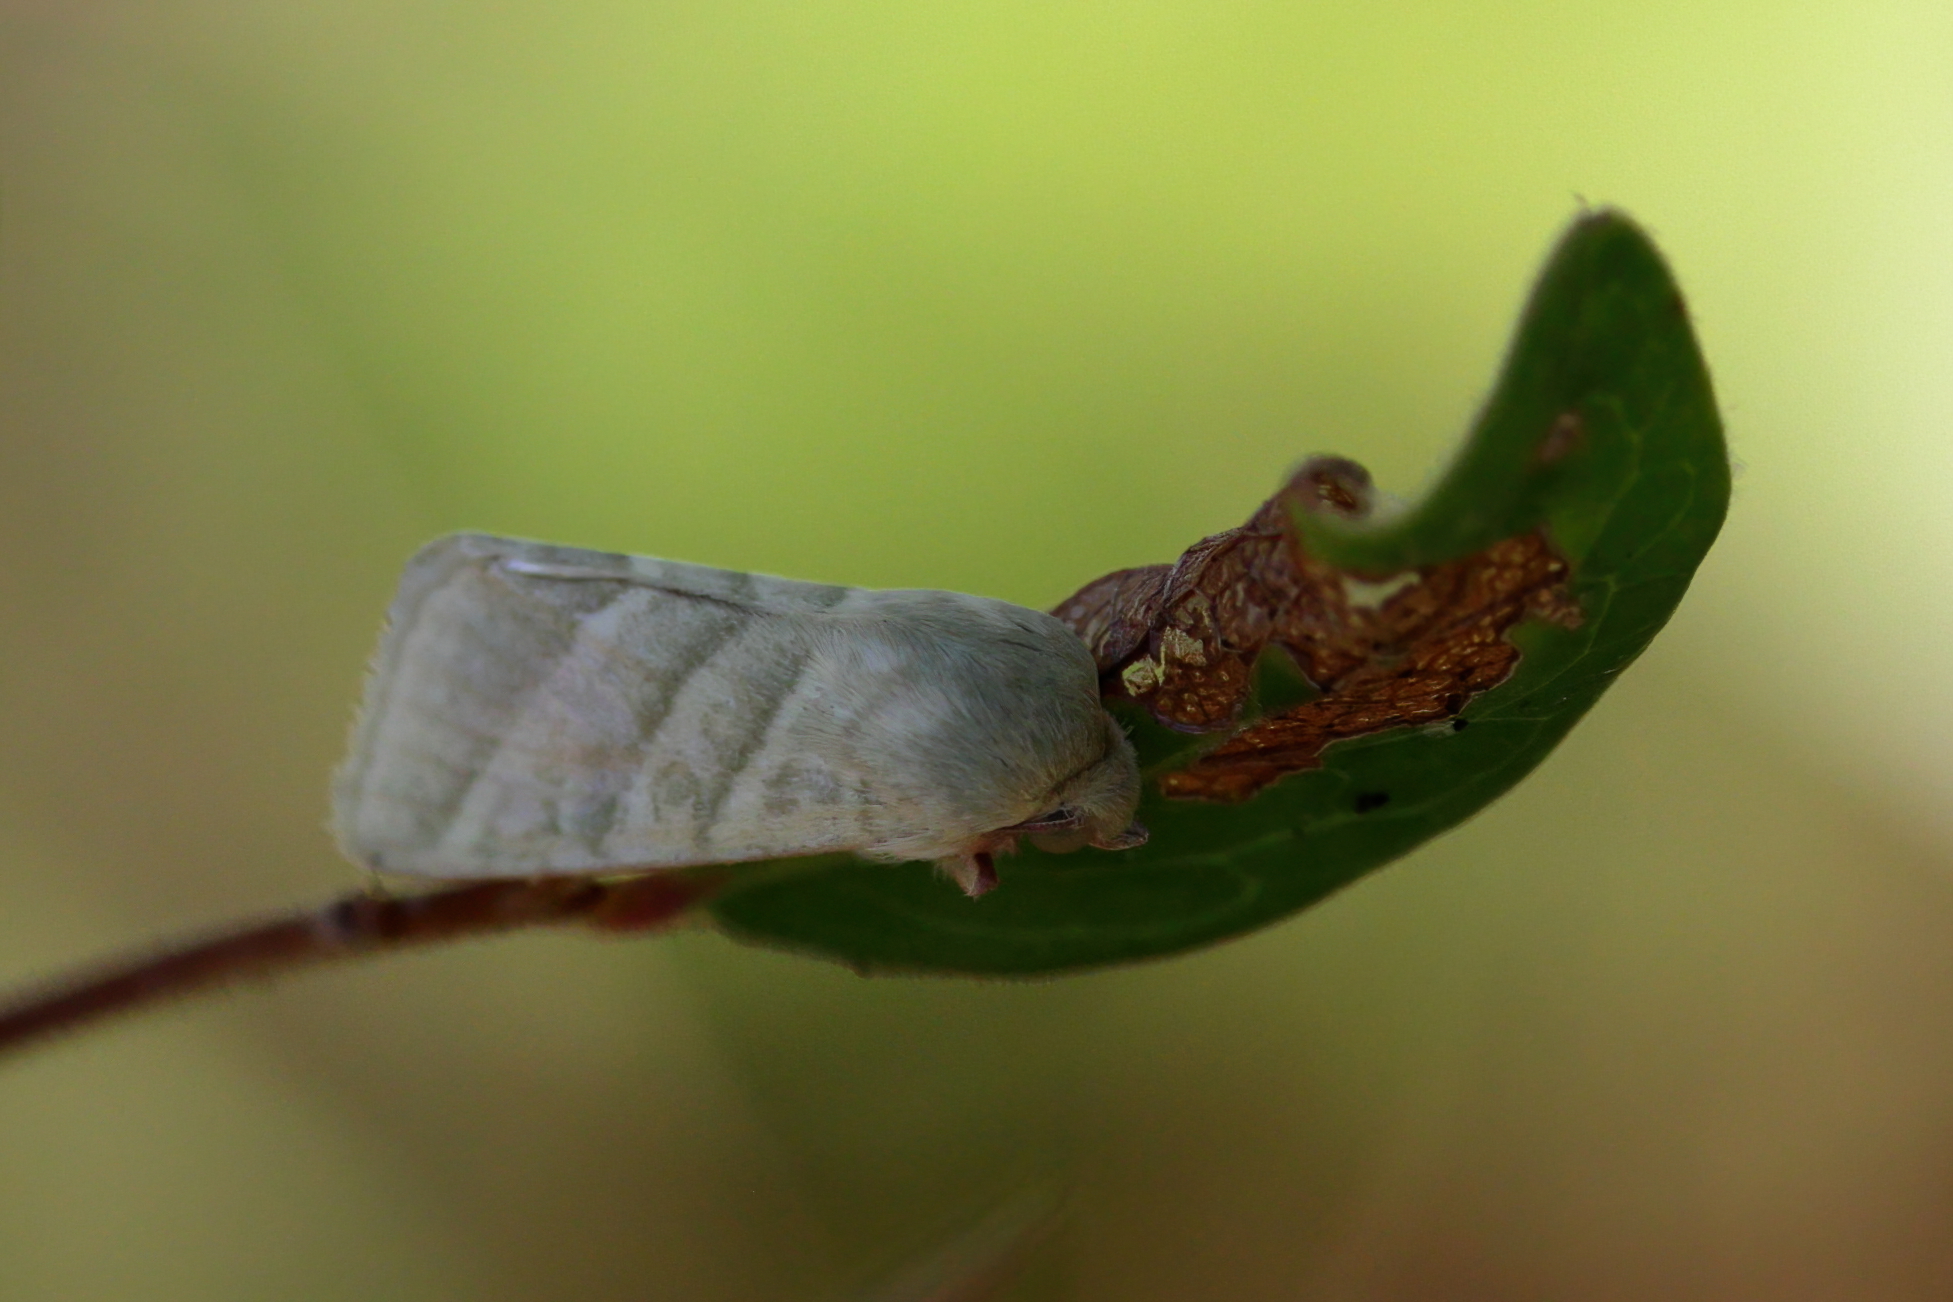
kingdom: Animalia
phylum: Arthropoda
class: Insecta
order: Lepidoptera
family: Noctuidae
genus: Chloridea
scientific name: Chloridea virescens
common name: Tobacco budworm
